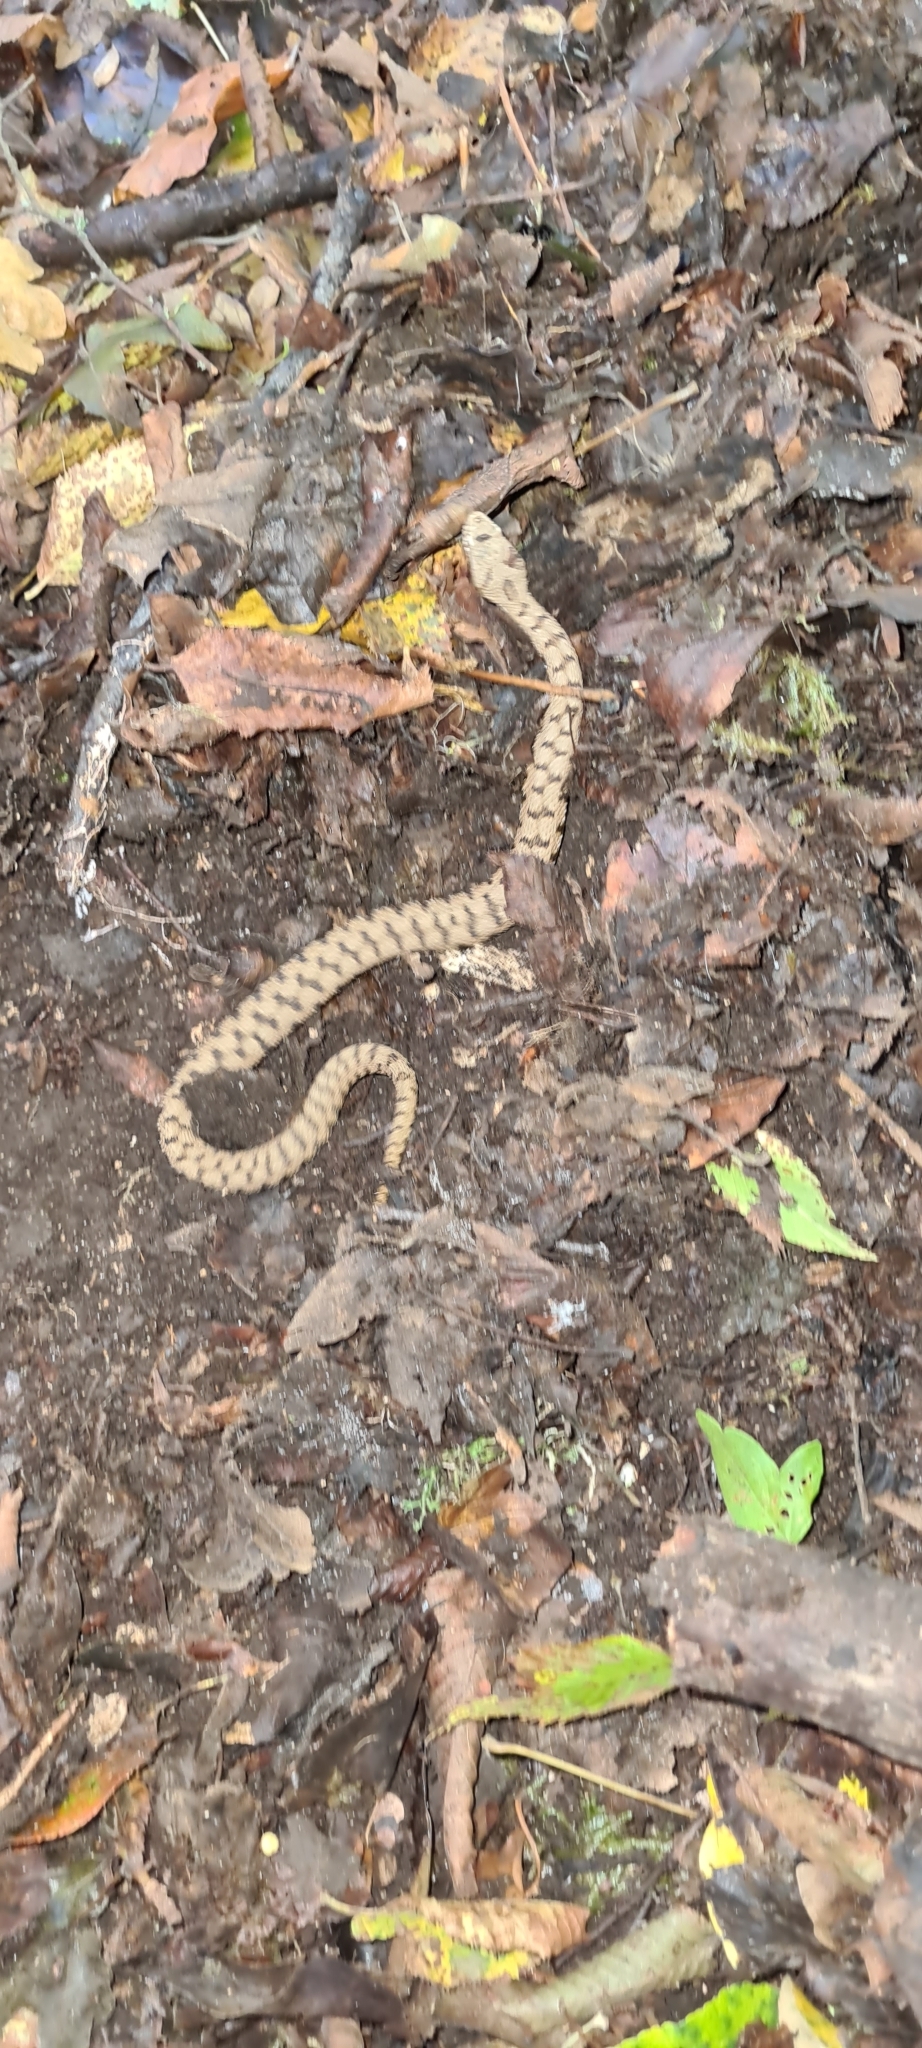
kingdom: Animalia
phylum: Chordata
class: Squamata
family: Viperidae
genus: Vipera
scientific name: Vipera aspis
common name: Asp viper
